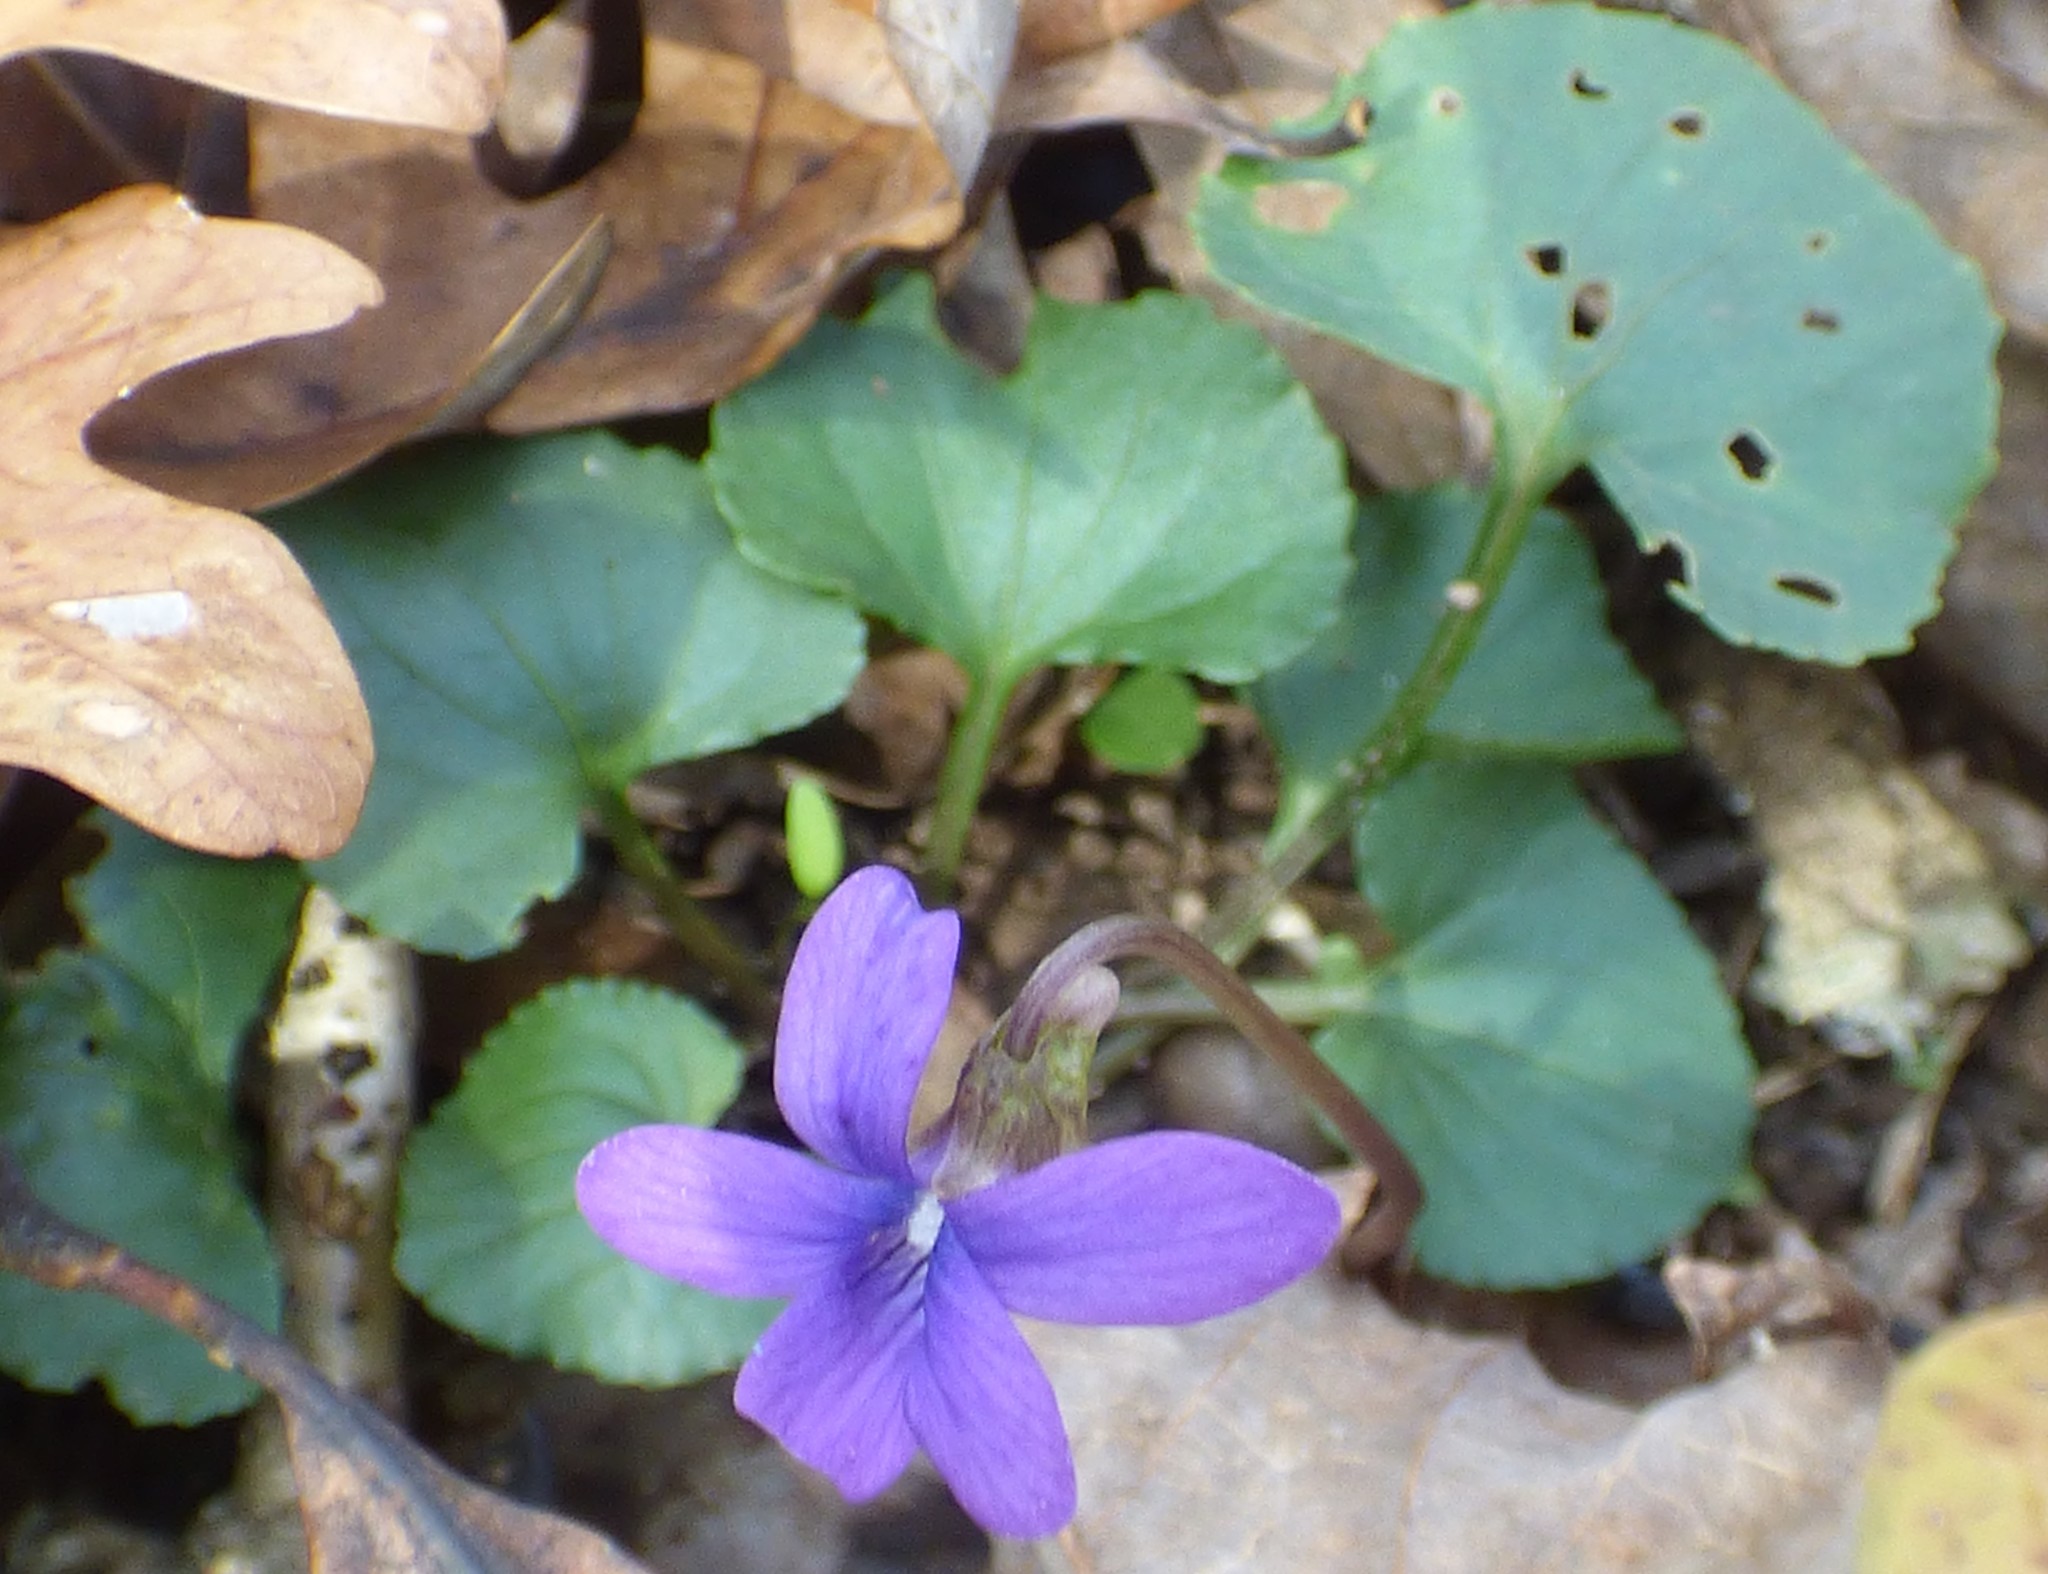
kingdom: Plantae
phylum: Tracheophyta
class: Magnoliopsida
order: Malpighiales
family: Violaceae
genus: Viola
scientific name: Viola sororia
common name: Dooryard violet
